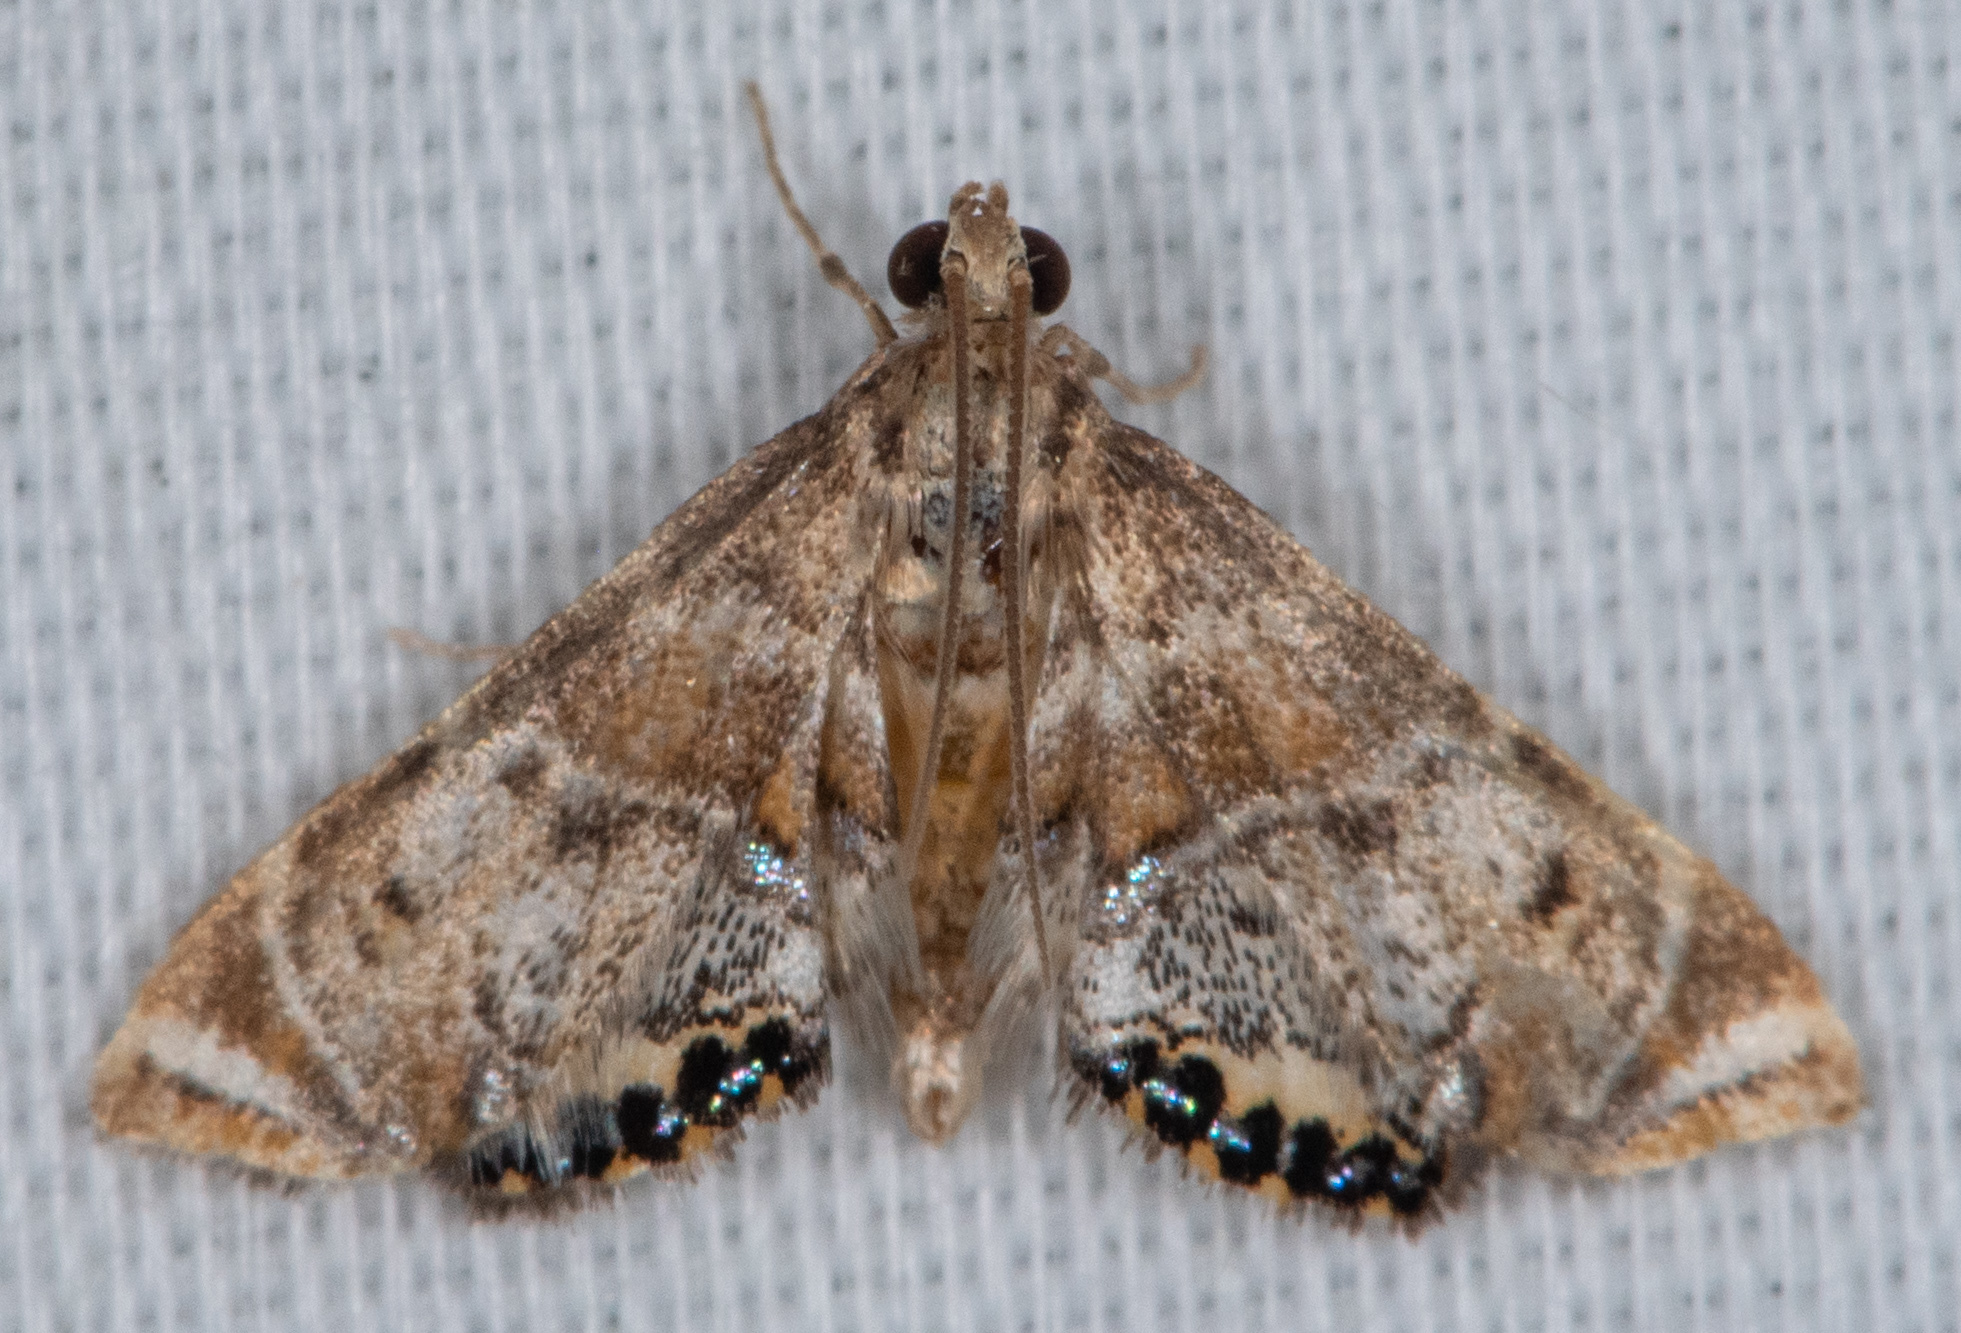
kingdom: Animalia
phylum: Arthropoda
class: Insecta
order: Lepidoptera
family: Crambidae
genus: Petrophila
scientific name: Petrophila confusalis
